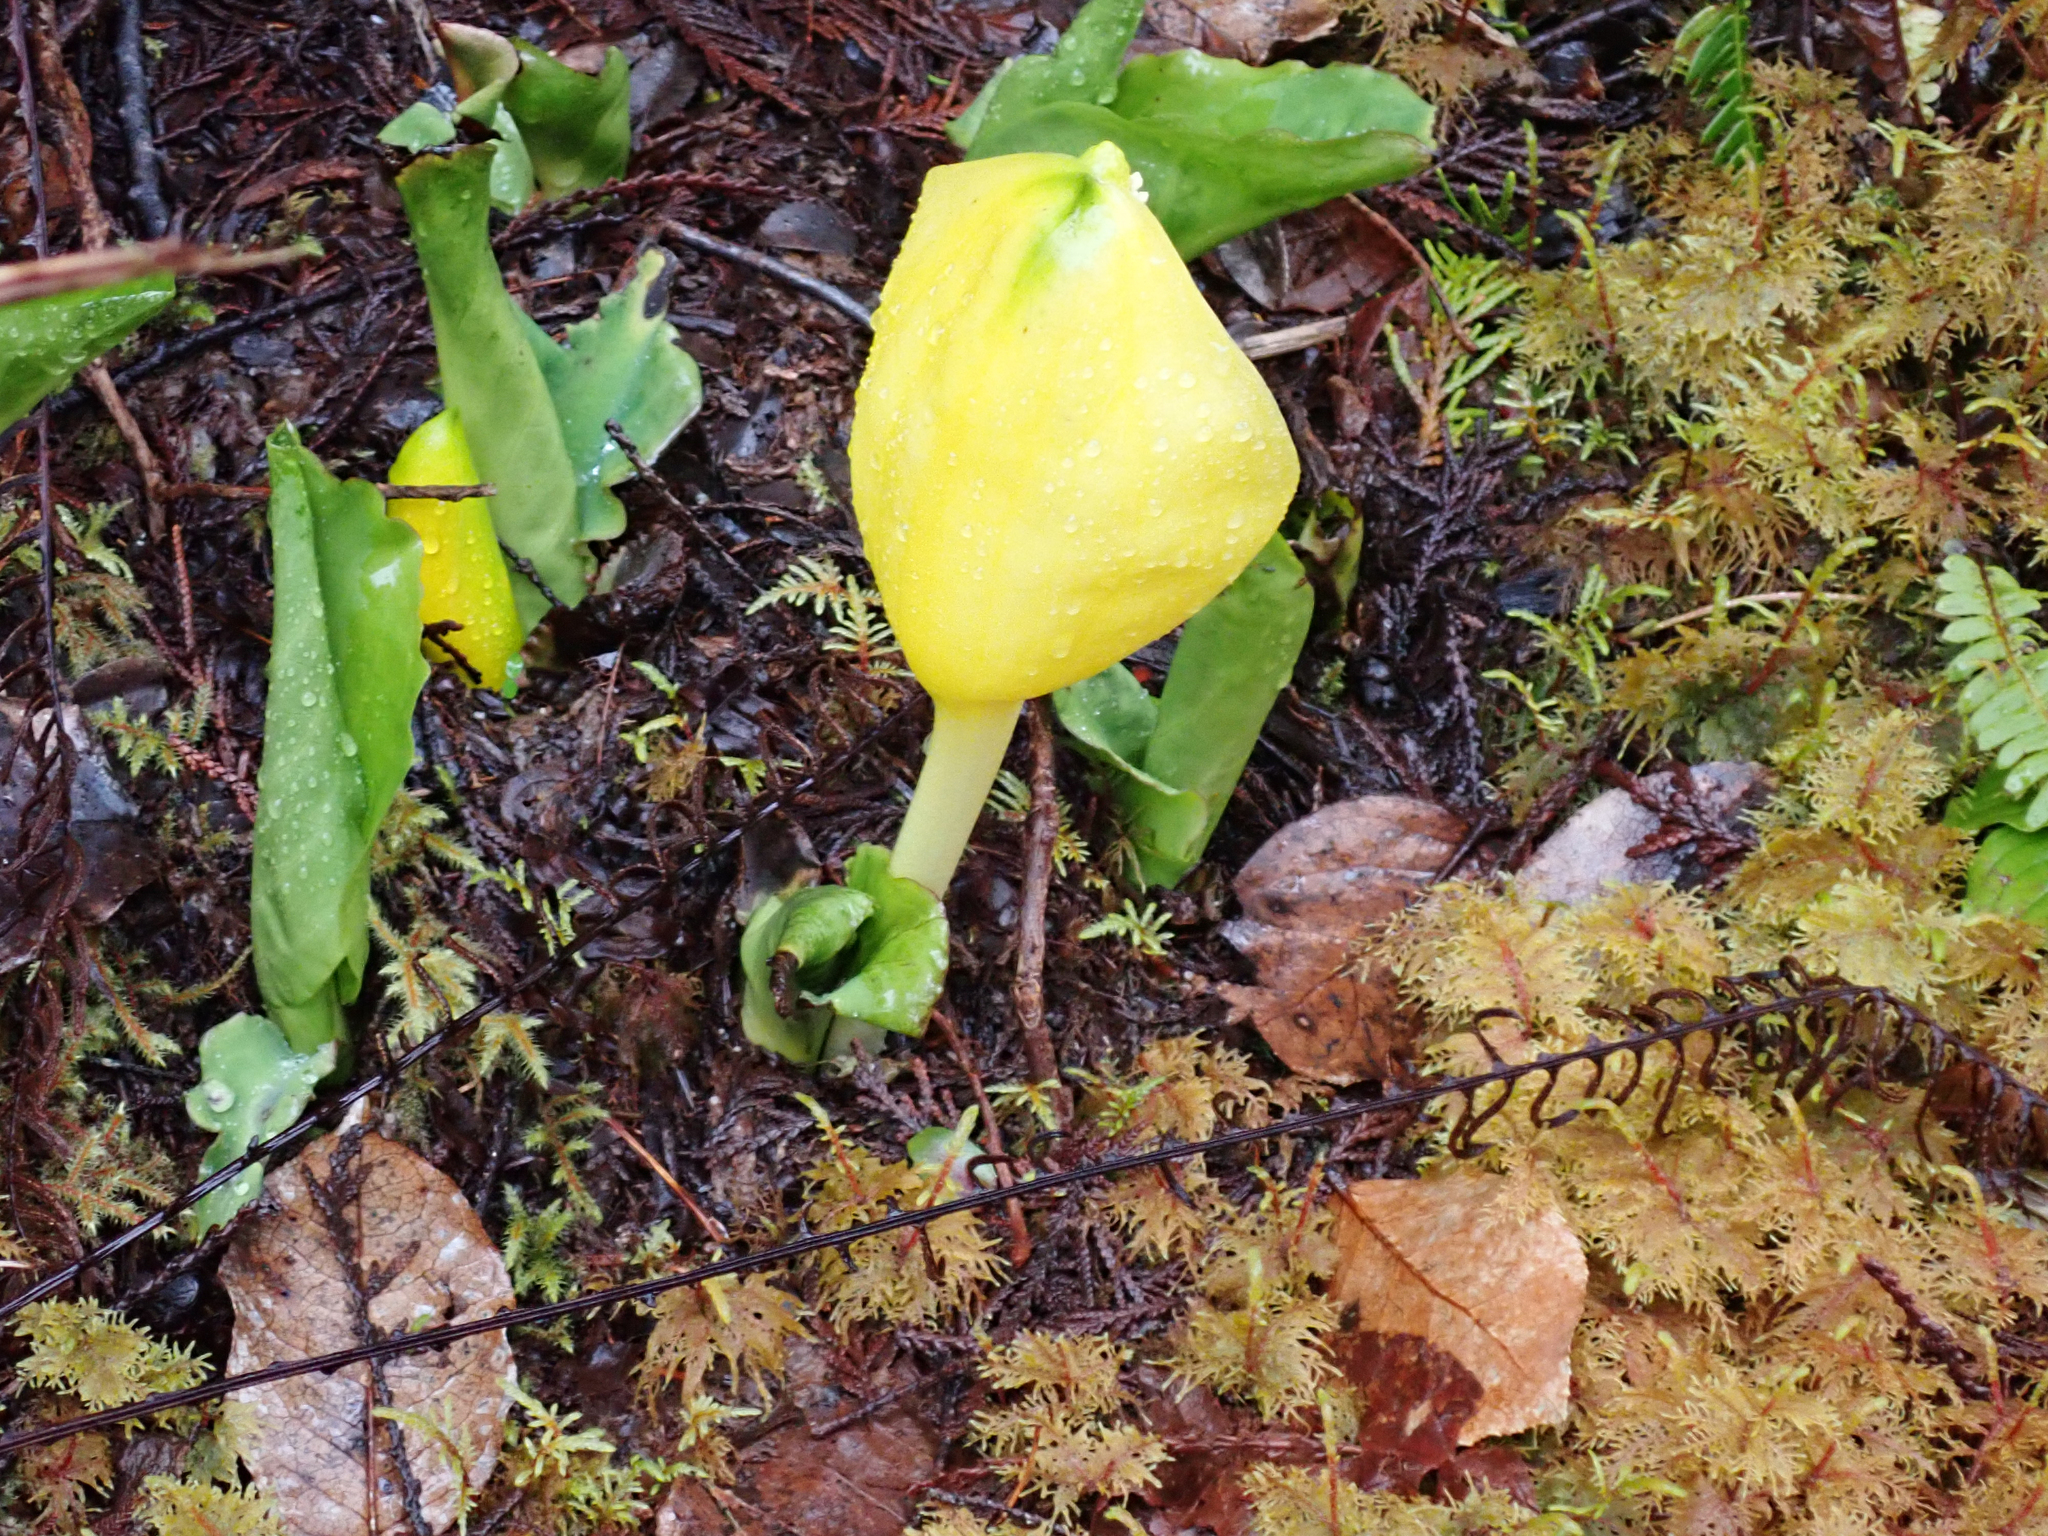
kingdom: Plantae
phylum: Tracheophyta
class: Liliopsida
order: Alismatales
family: Araceae
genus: Lysichiton
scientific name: Lysichiton americanus
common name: American skunk cabbage
